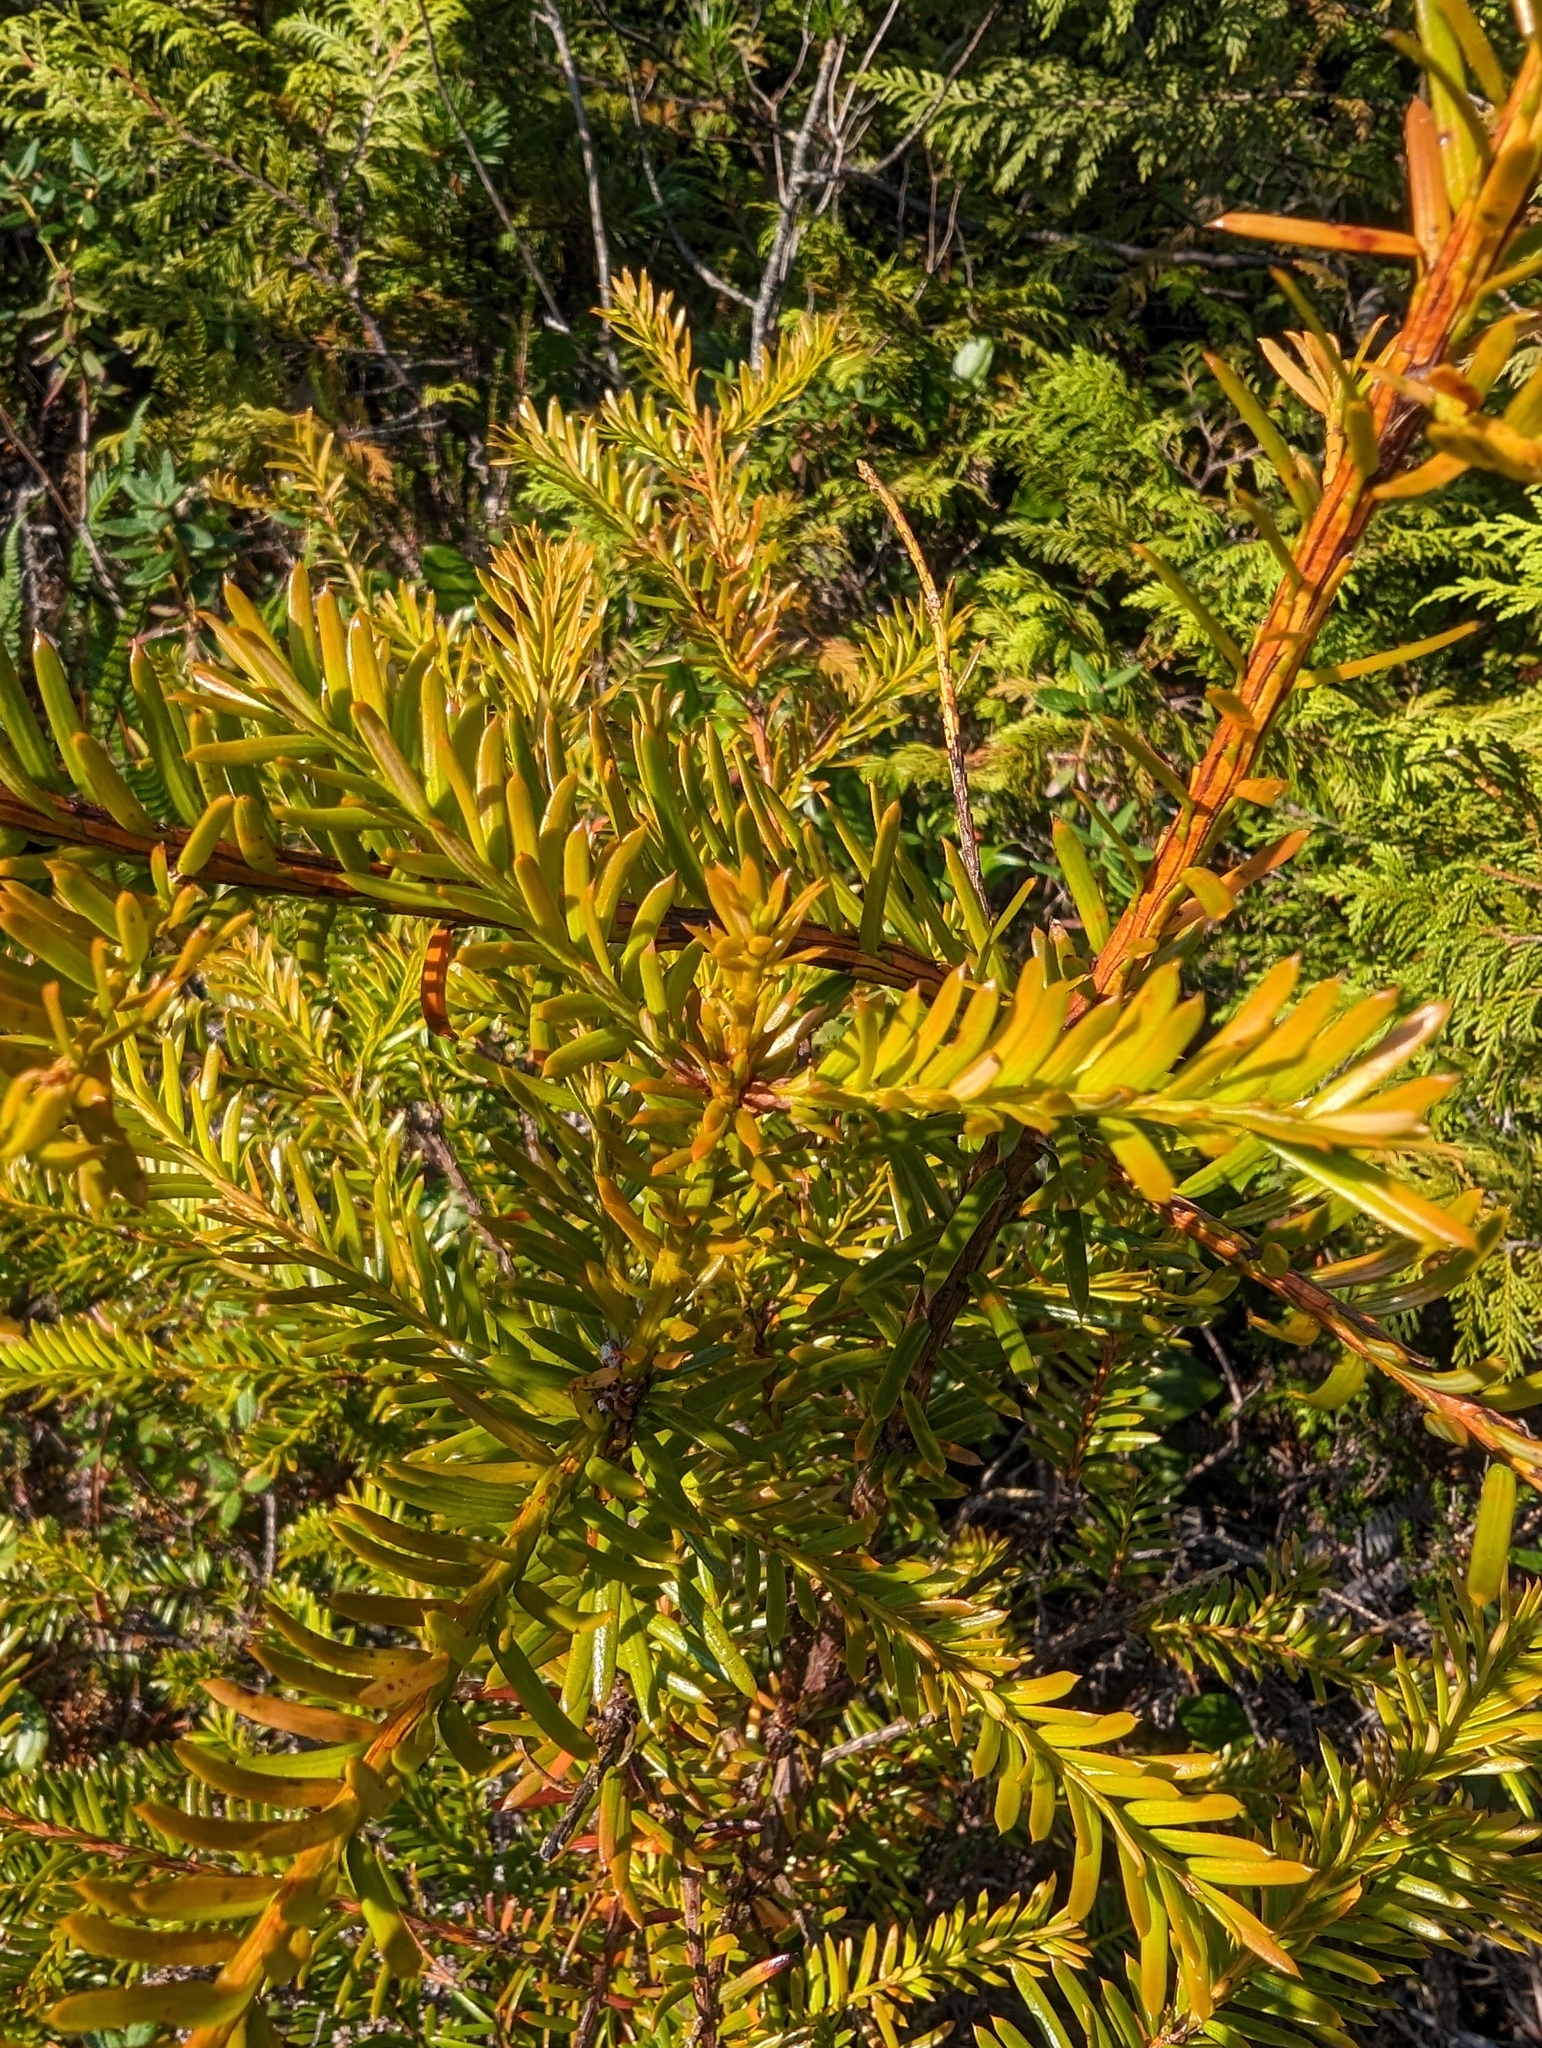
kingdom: Plantae
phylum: Tracheophyta
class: Pinopsida
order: Pinales
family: Taxaceae
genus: Taxus
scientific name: Taxus brevifolia
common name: Pacific yew
